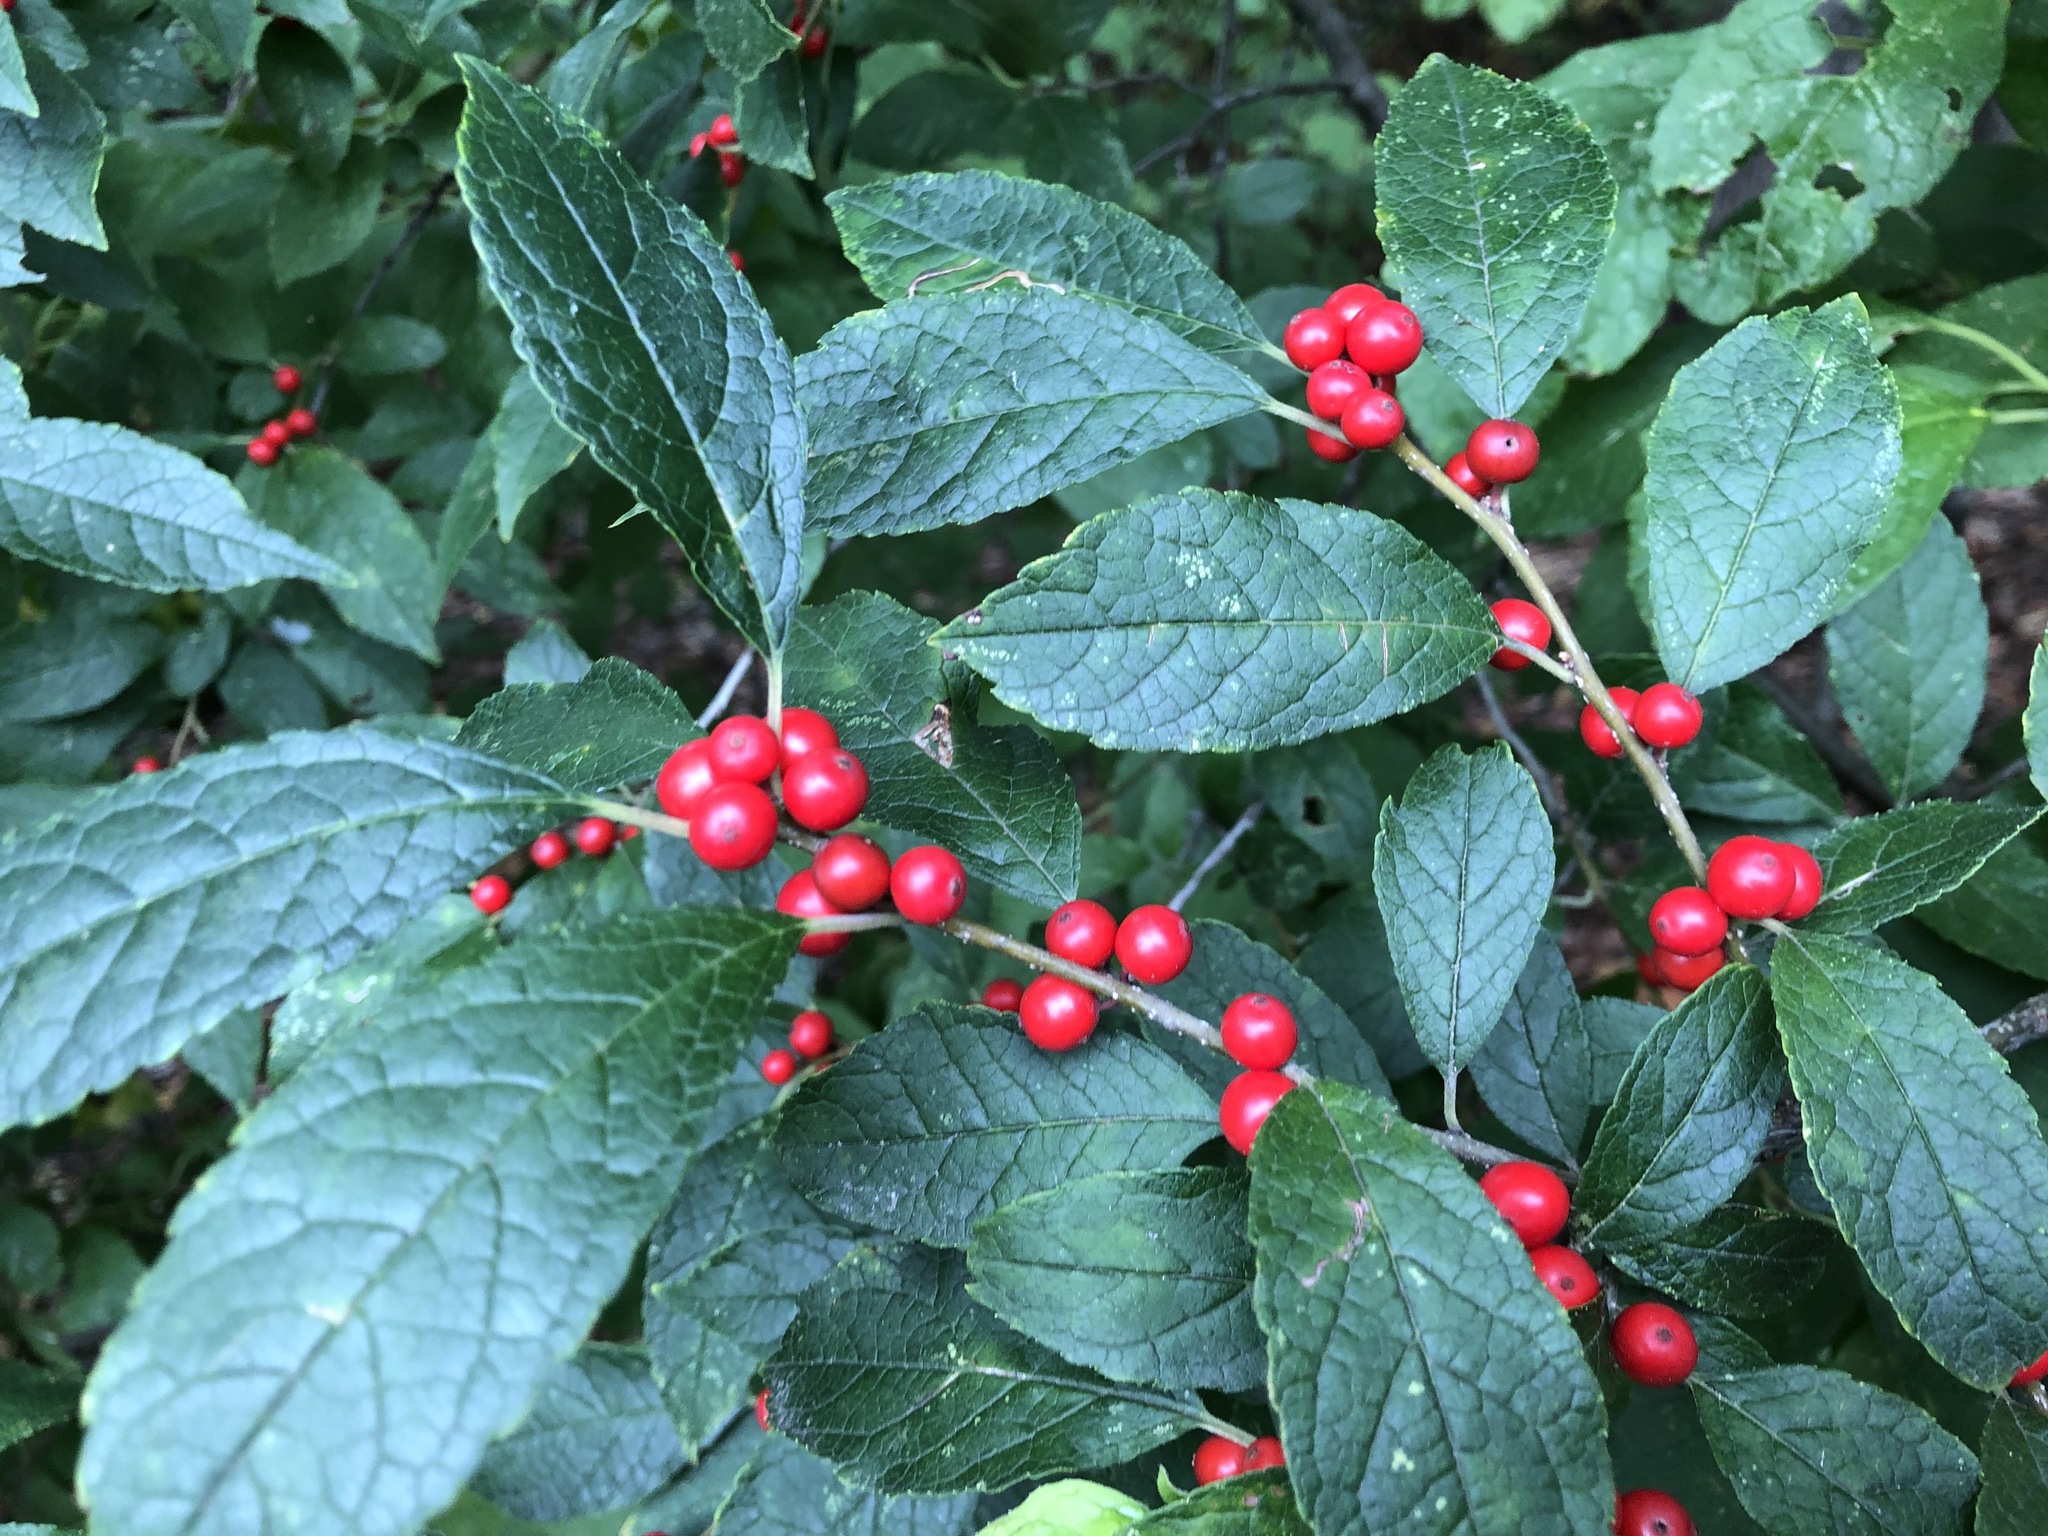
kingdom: Plantae
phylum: Tracheophyta
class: Magnoliopsida
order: Aquifoliales
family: Aquifoliaceae
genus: Ilex
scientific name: Ilex verticillata
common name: Virginia winterberry
